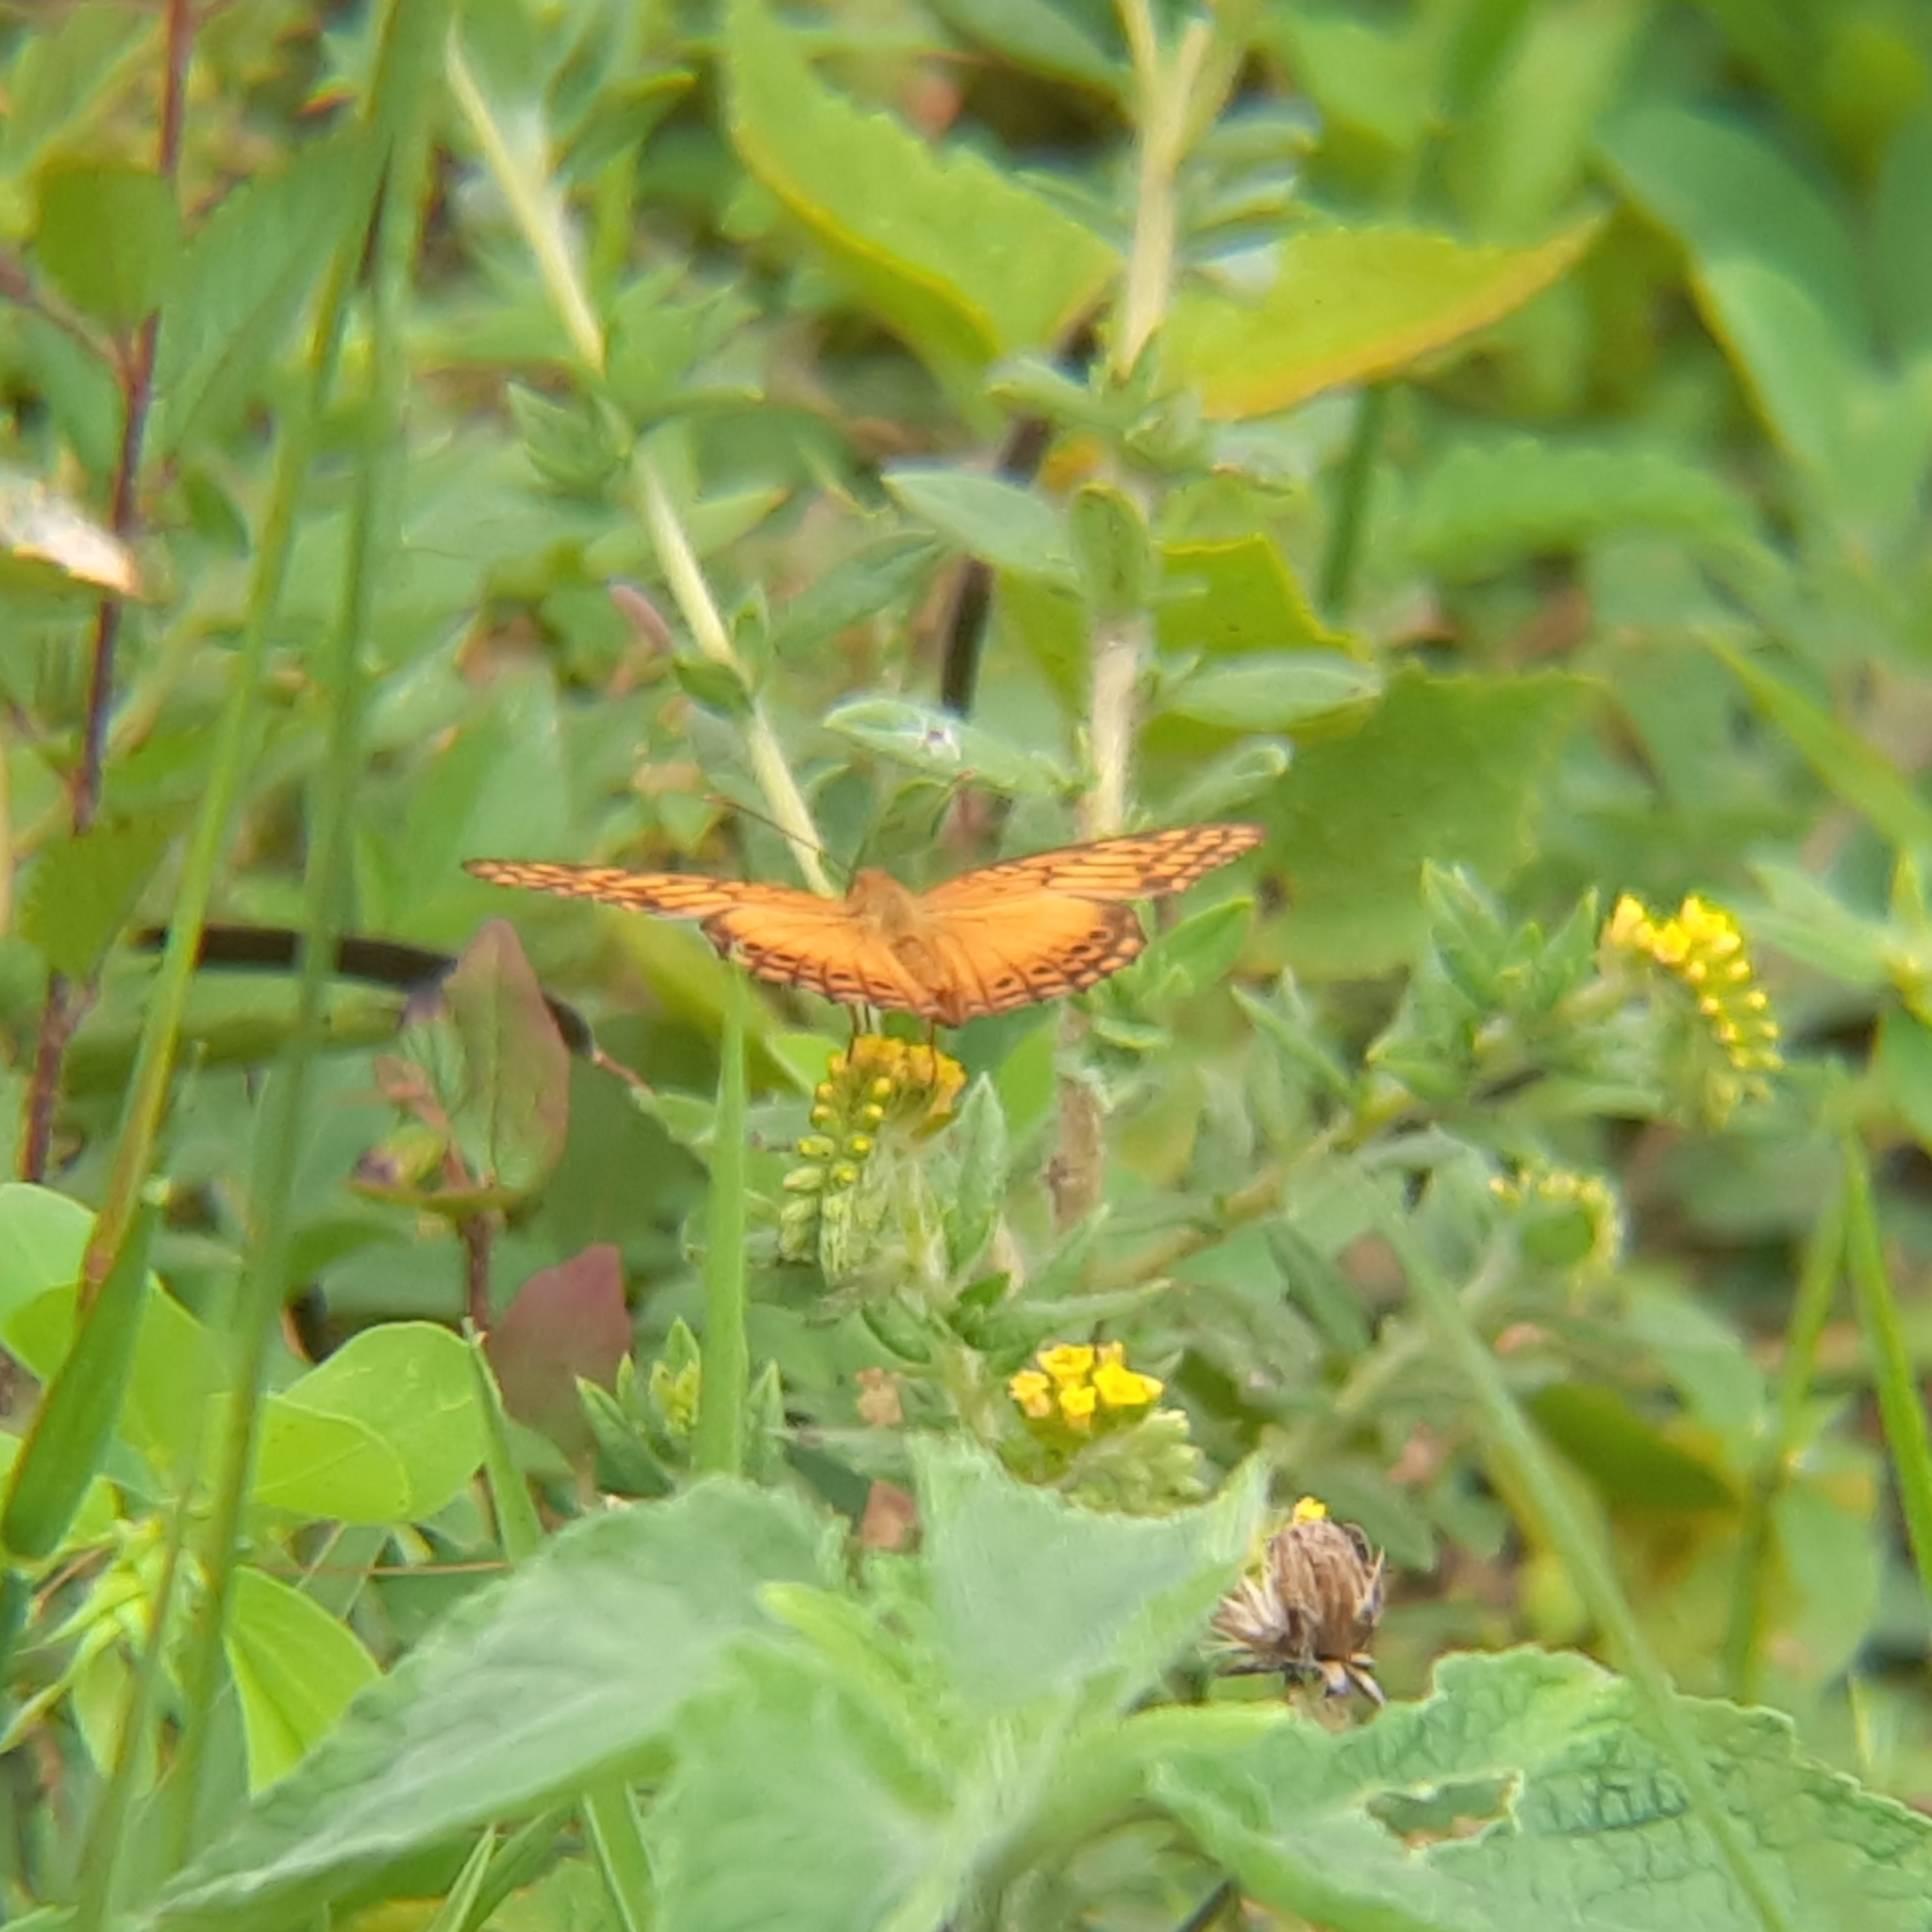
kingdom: Animalia
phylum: Arthropoda
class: Insecta
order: Lepidoptera
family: Nymphalidae
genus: Euptoieta
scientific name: Euptoieta hegesia
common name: Mexican fritillary
